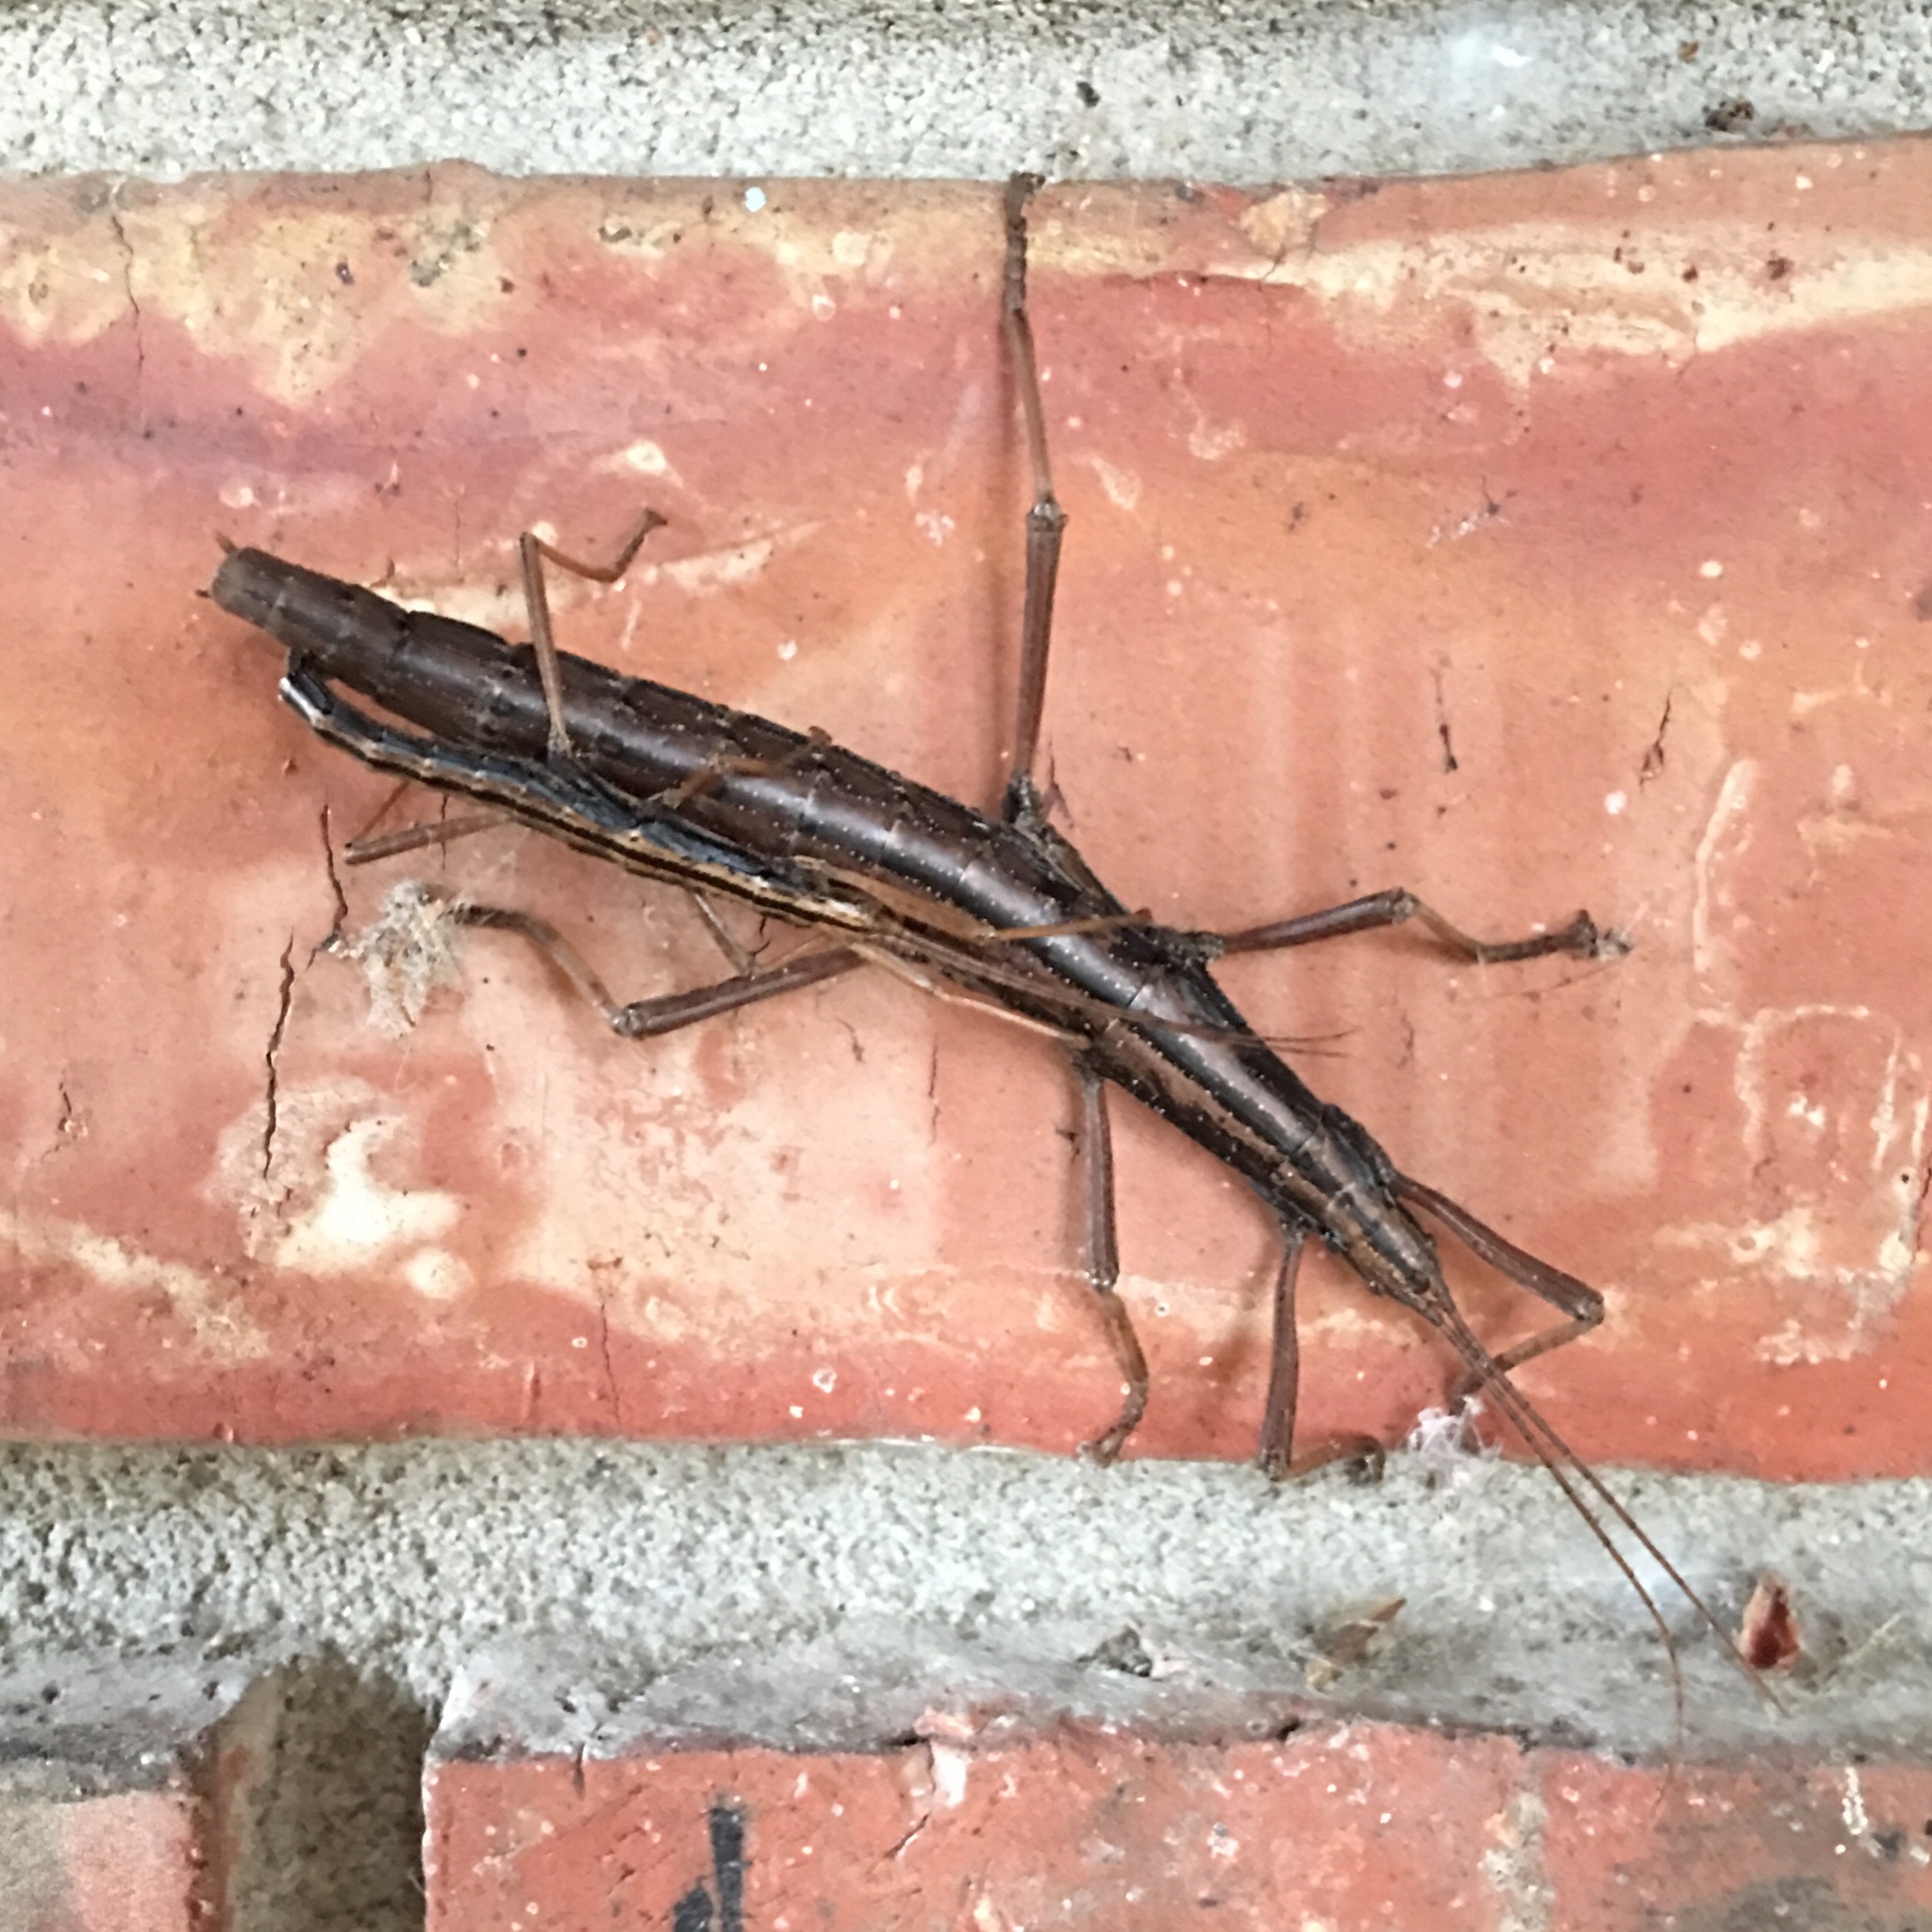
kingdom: Animalia
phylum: Arthropoda
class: Insecta
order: Phasmida
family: Pseudophasmatidae
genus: Anisomorpha
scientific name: Anisomorpha buprestoides
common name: Florida stick insect
